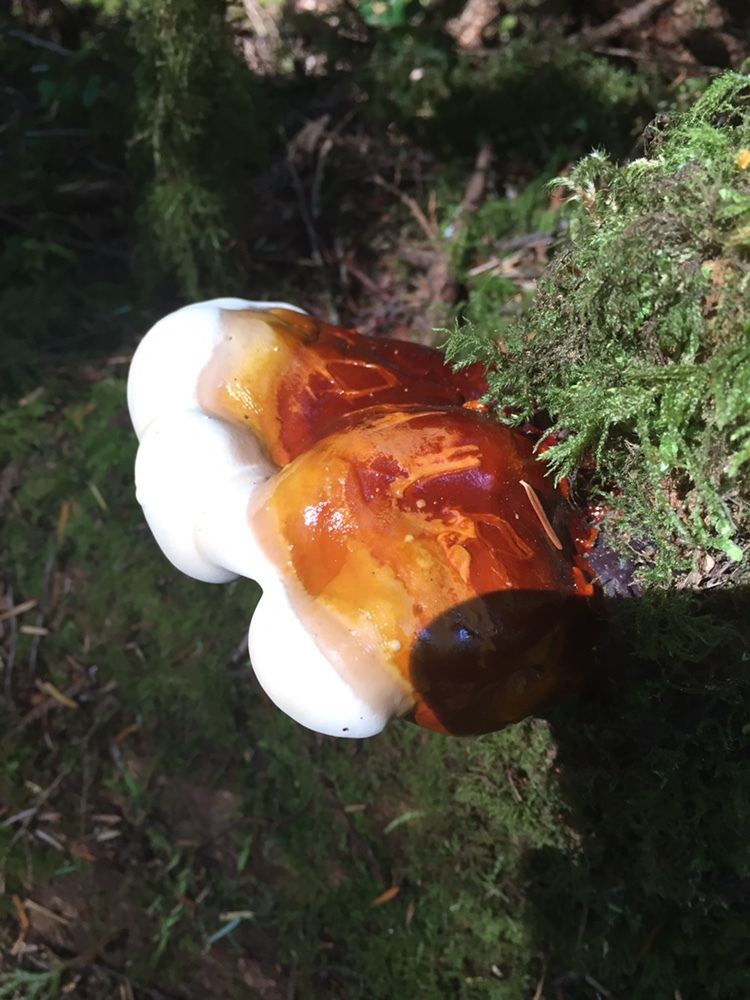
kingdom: Fungi
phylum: Basidiomycota
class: Agaricomycetes
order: Polyporales
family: Polyporaceae
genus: Ganoderma
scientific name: Ganoderma oregonense
